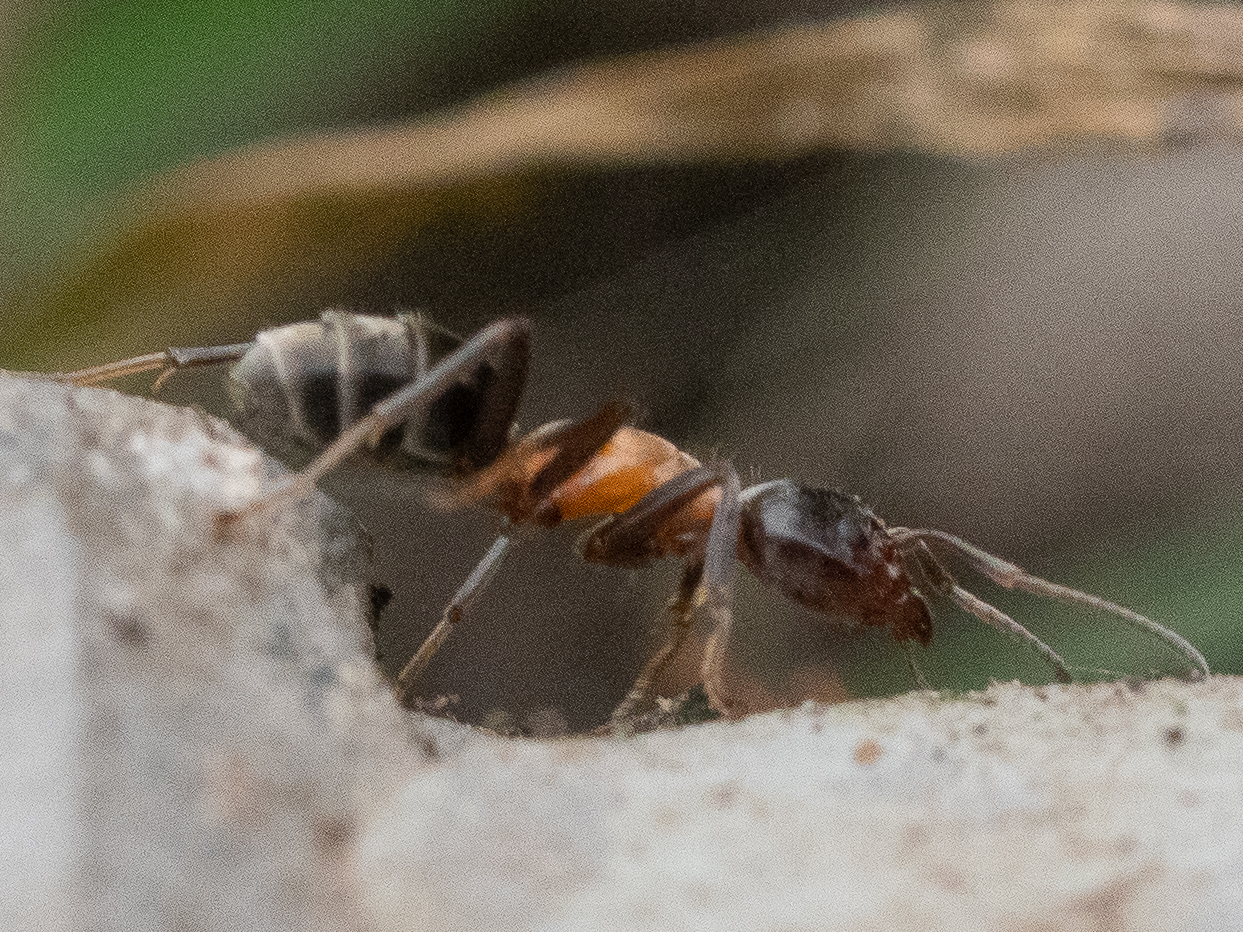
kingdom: Animalia
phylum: Arthropoda
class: Insecta
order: Hymenoptera
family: Formicidae
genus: Liometopum
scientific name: Liometopum microcephalum
